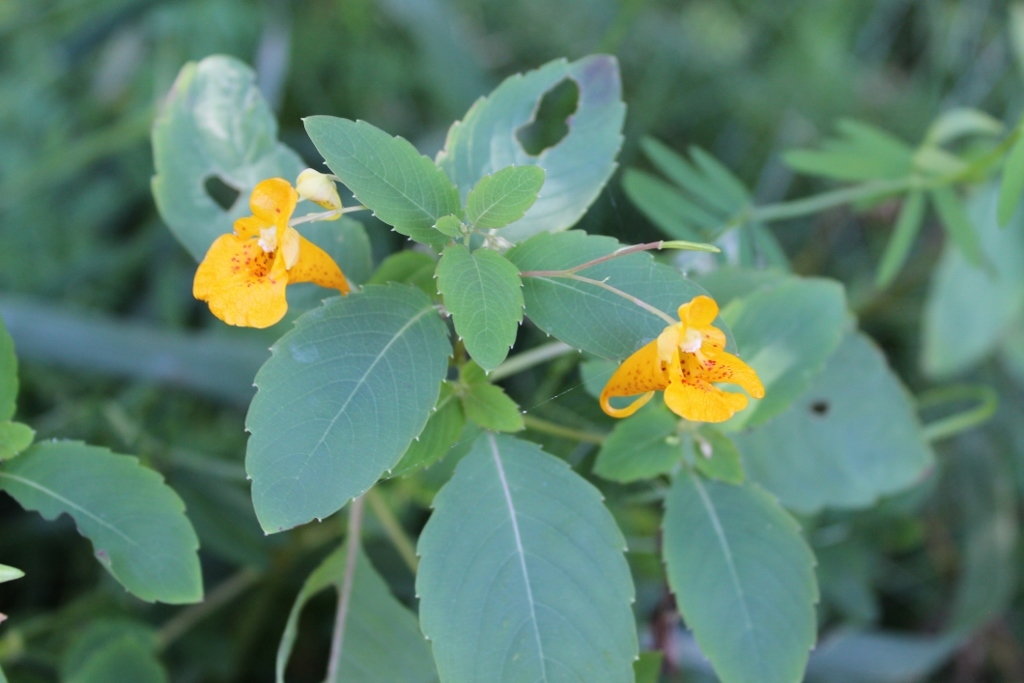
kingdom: Plantae
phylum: Tracheophyta
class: Magnoliopsida
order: Ericales
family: Balsaminaceae
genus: Impatiens
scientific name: Impatiens capensis
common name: Orange balsam
